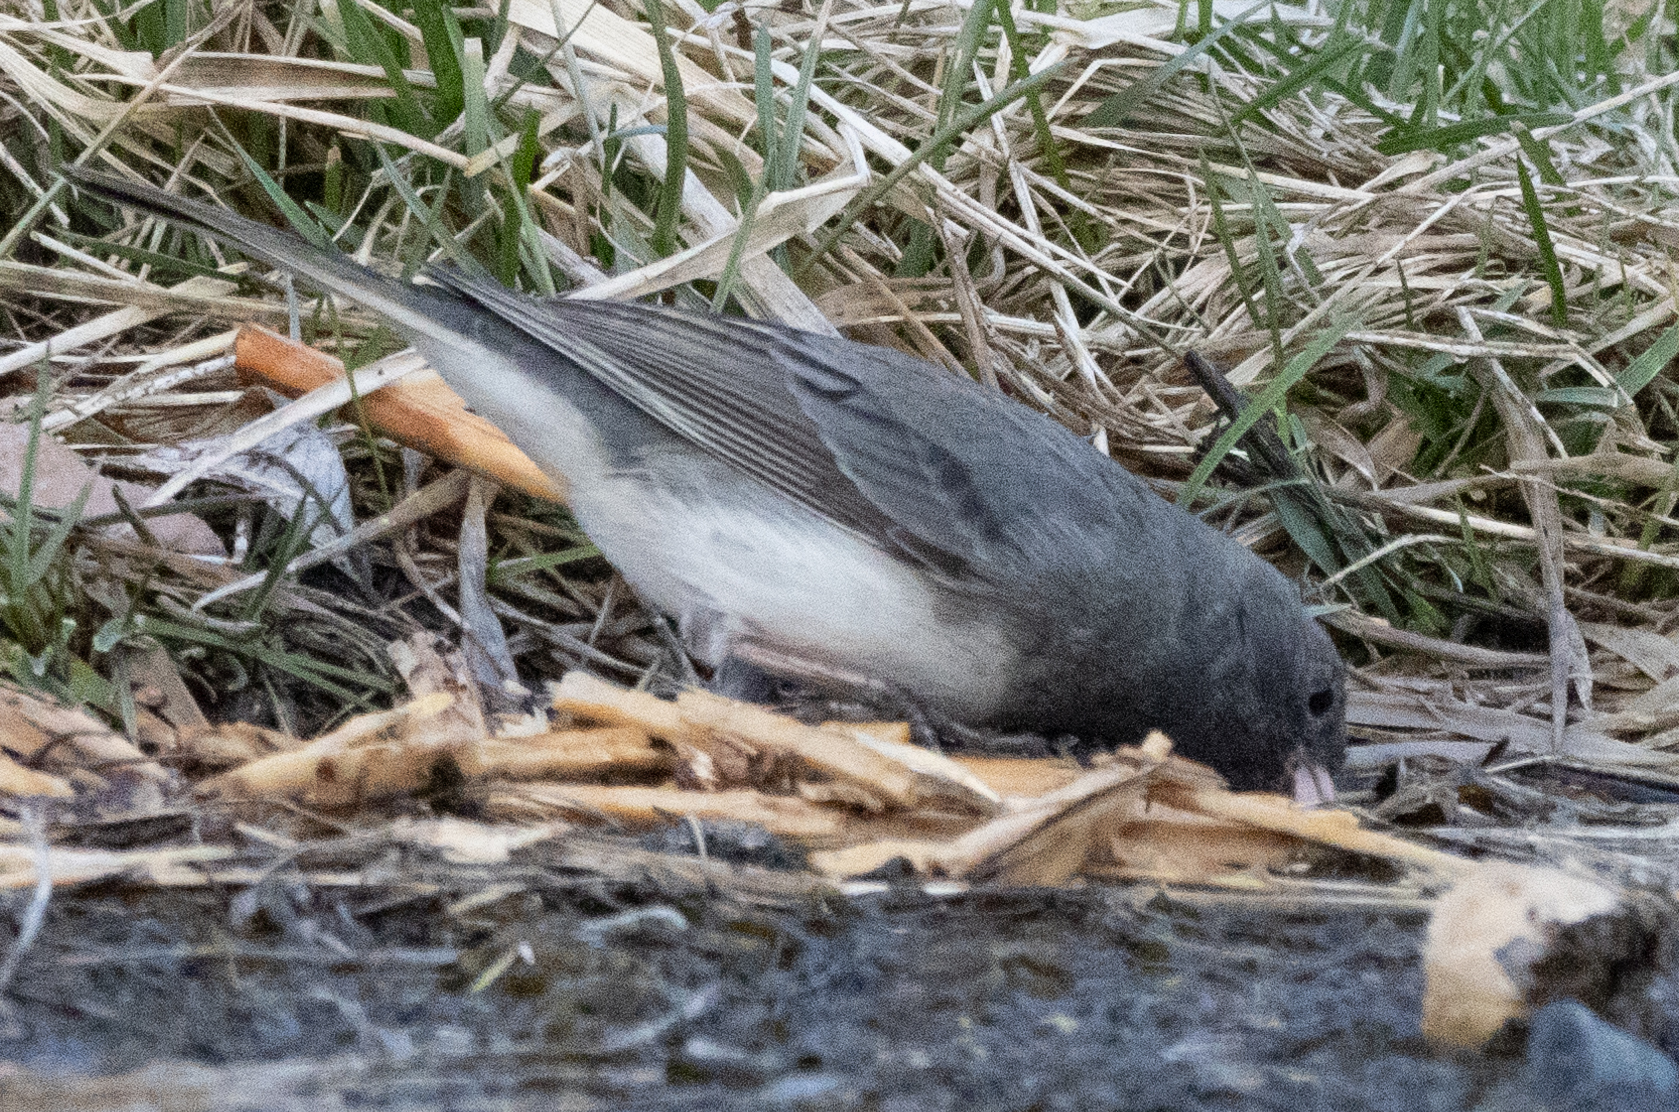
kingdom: Animalia
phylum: Chordata
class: Aves
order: Passeriformes
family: Passerellidae
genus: Junco
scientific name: Junco hyemalis
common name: Dark-eyed junco
